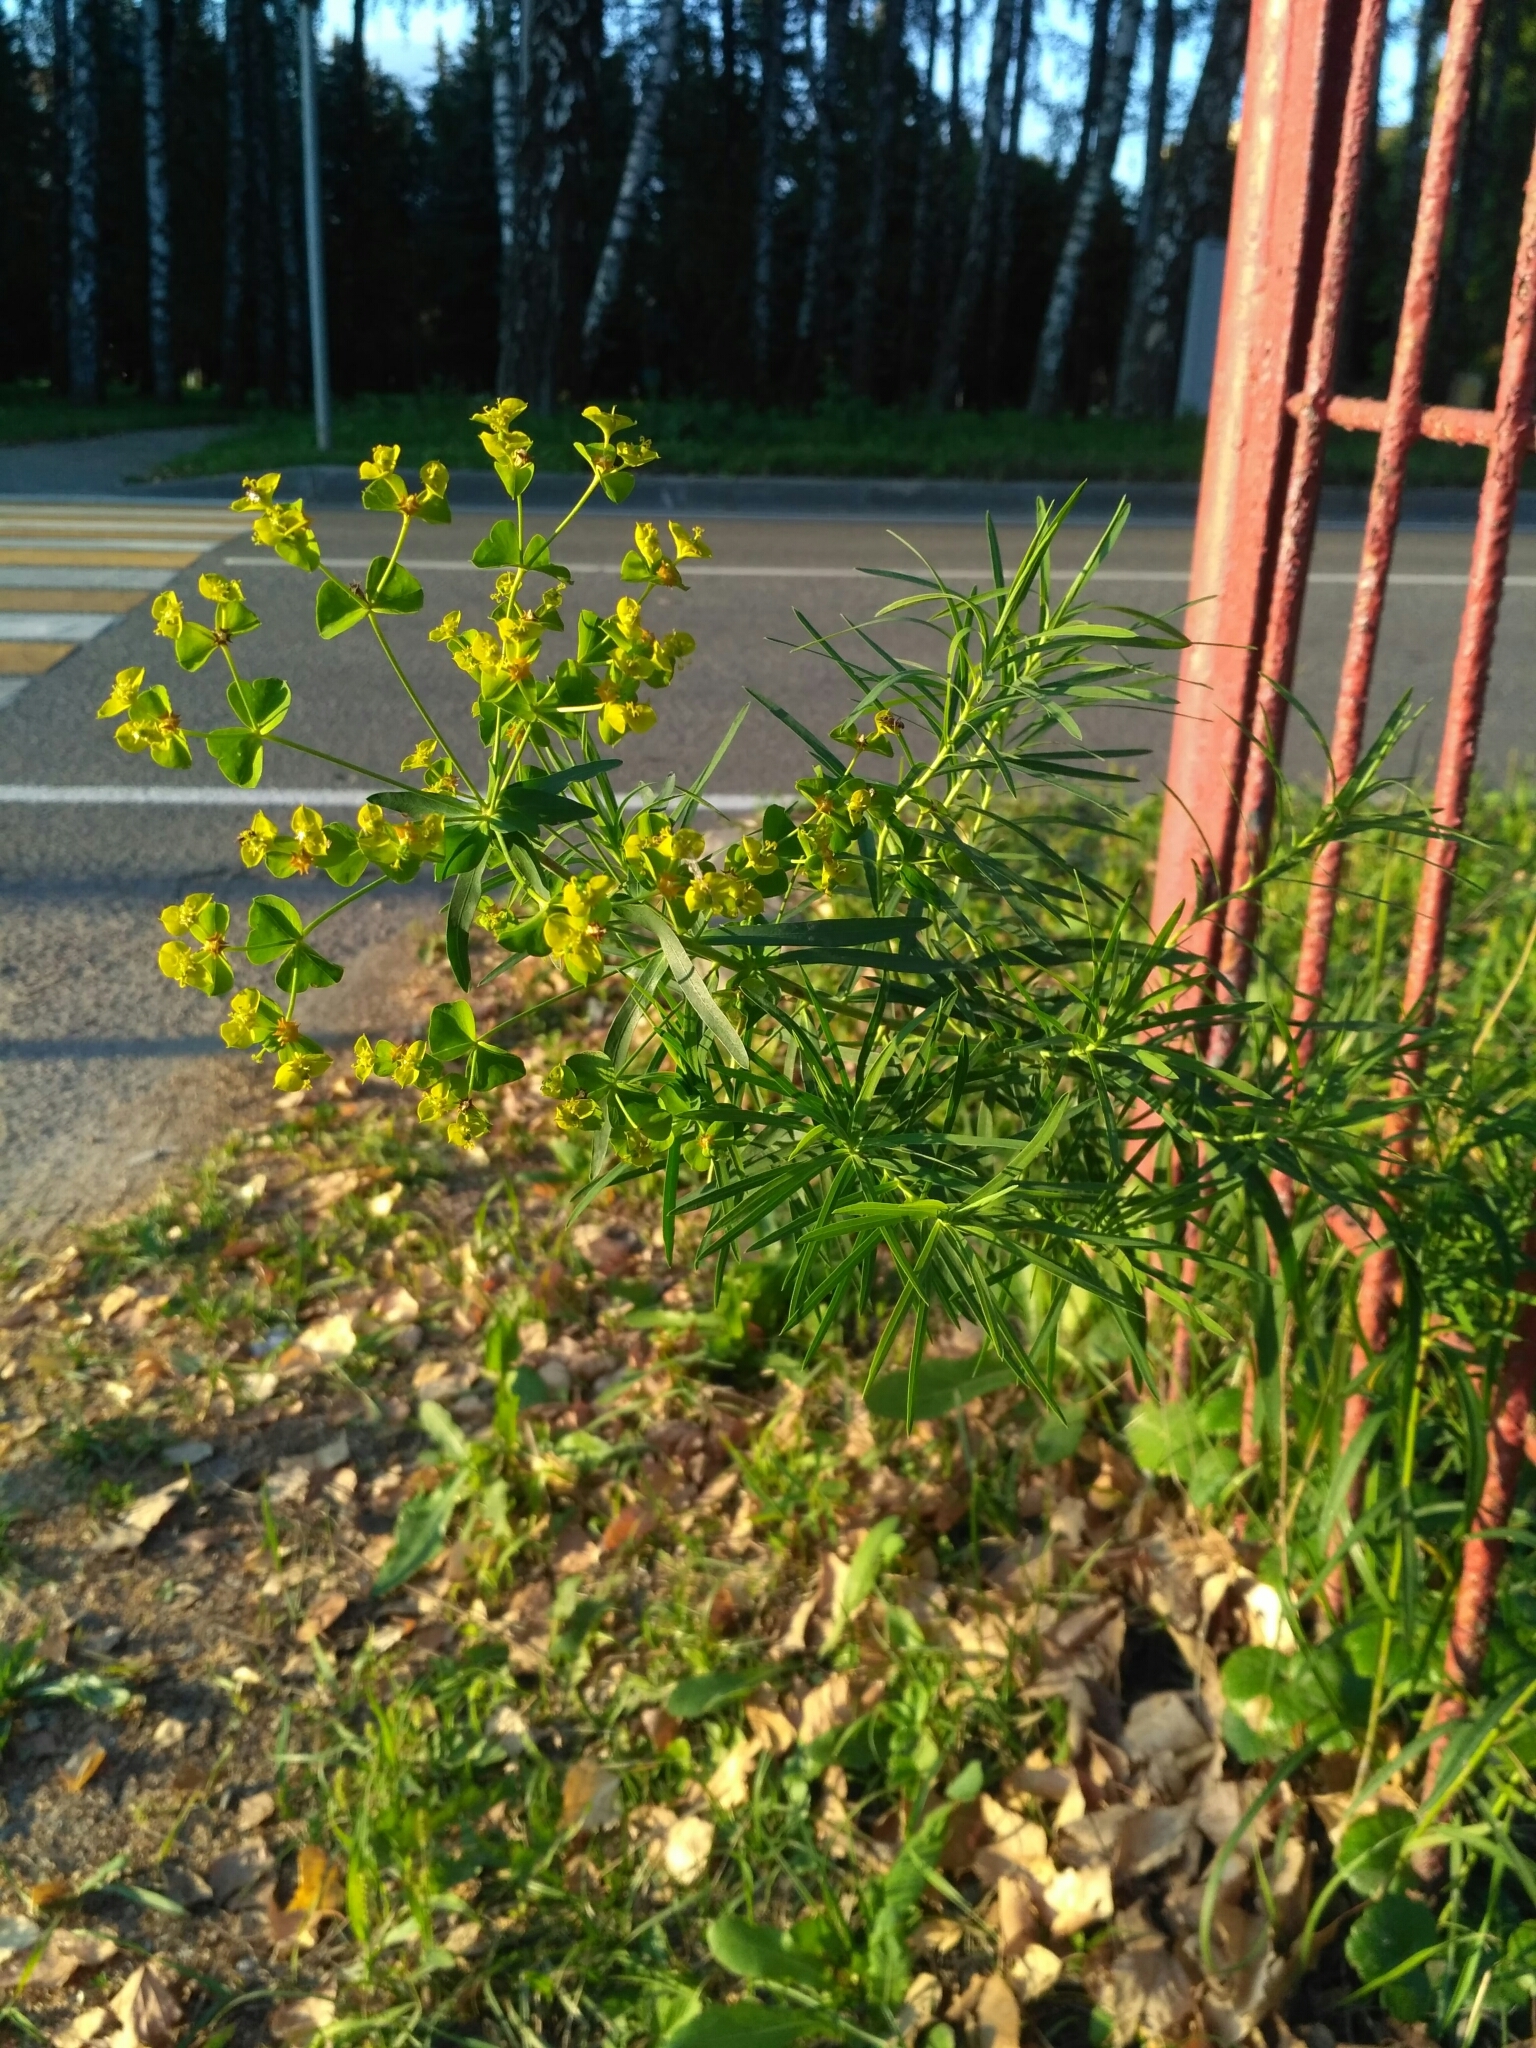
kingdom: Plantae
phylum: Tracheophyta
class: Magnoliopsida
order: Malpighiales
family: Euphorbiaceae
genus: Euphorbia
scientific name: Euphorbia virgata
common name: Leafy spurge
